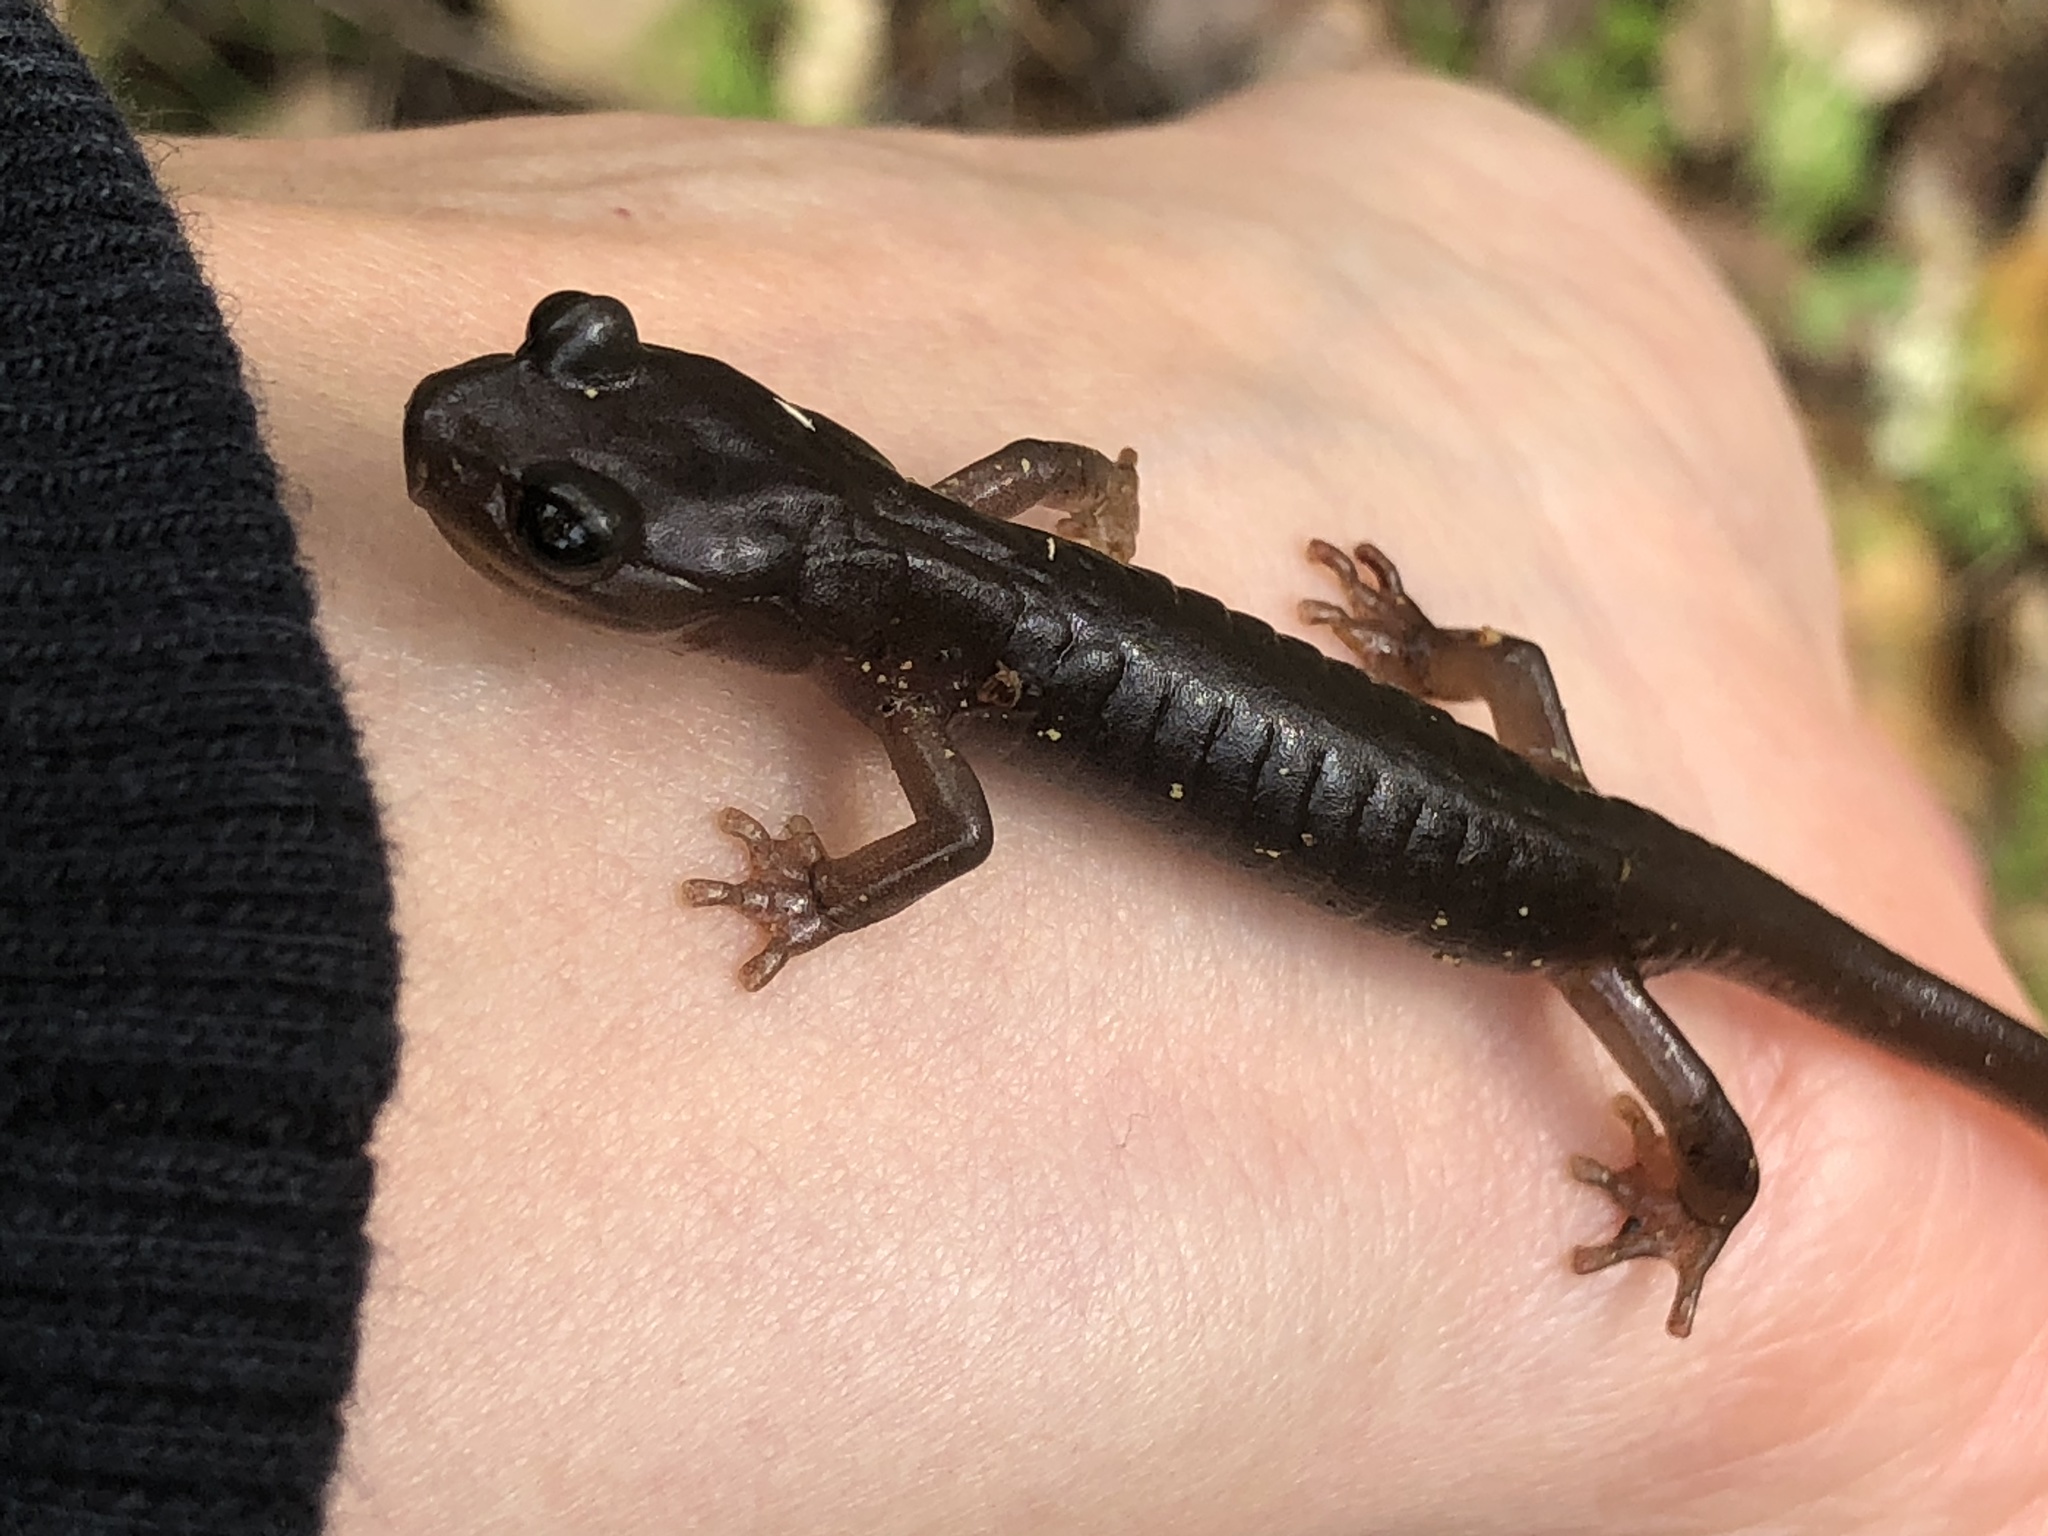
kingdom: Animalia
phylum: Chordata
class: Amphibia
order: Caudata
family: Plethodontidae
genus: Aneides
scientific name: Aneides lugubris
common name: Arboreal salamander
